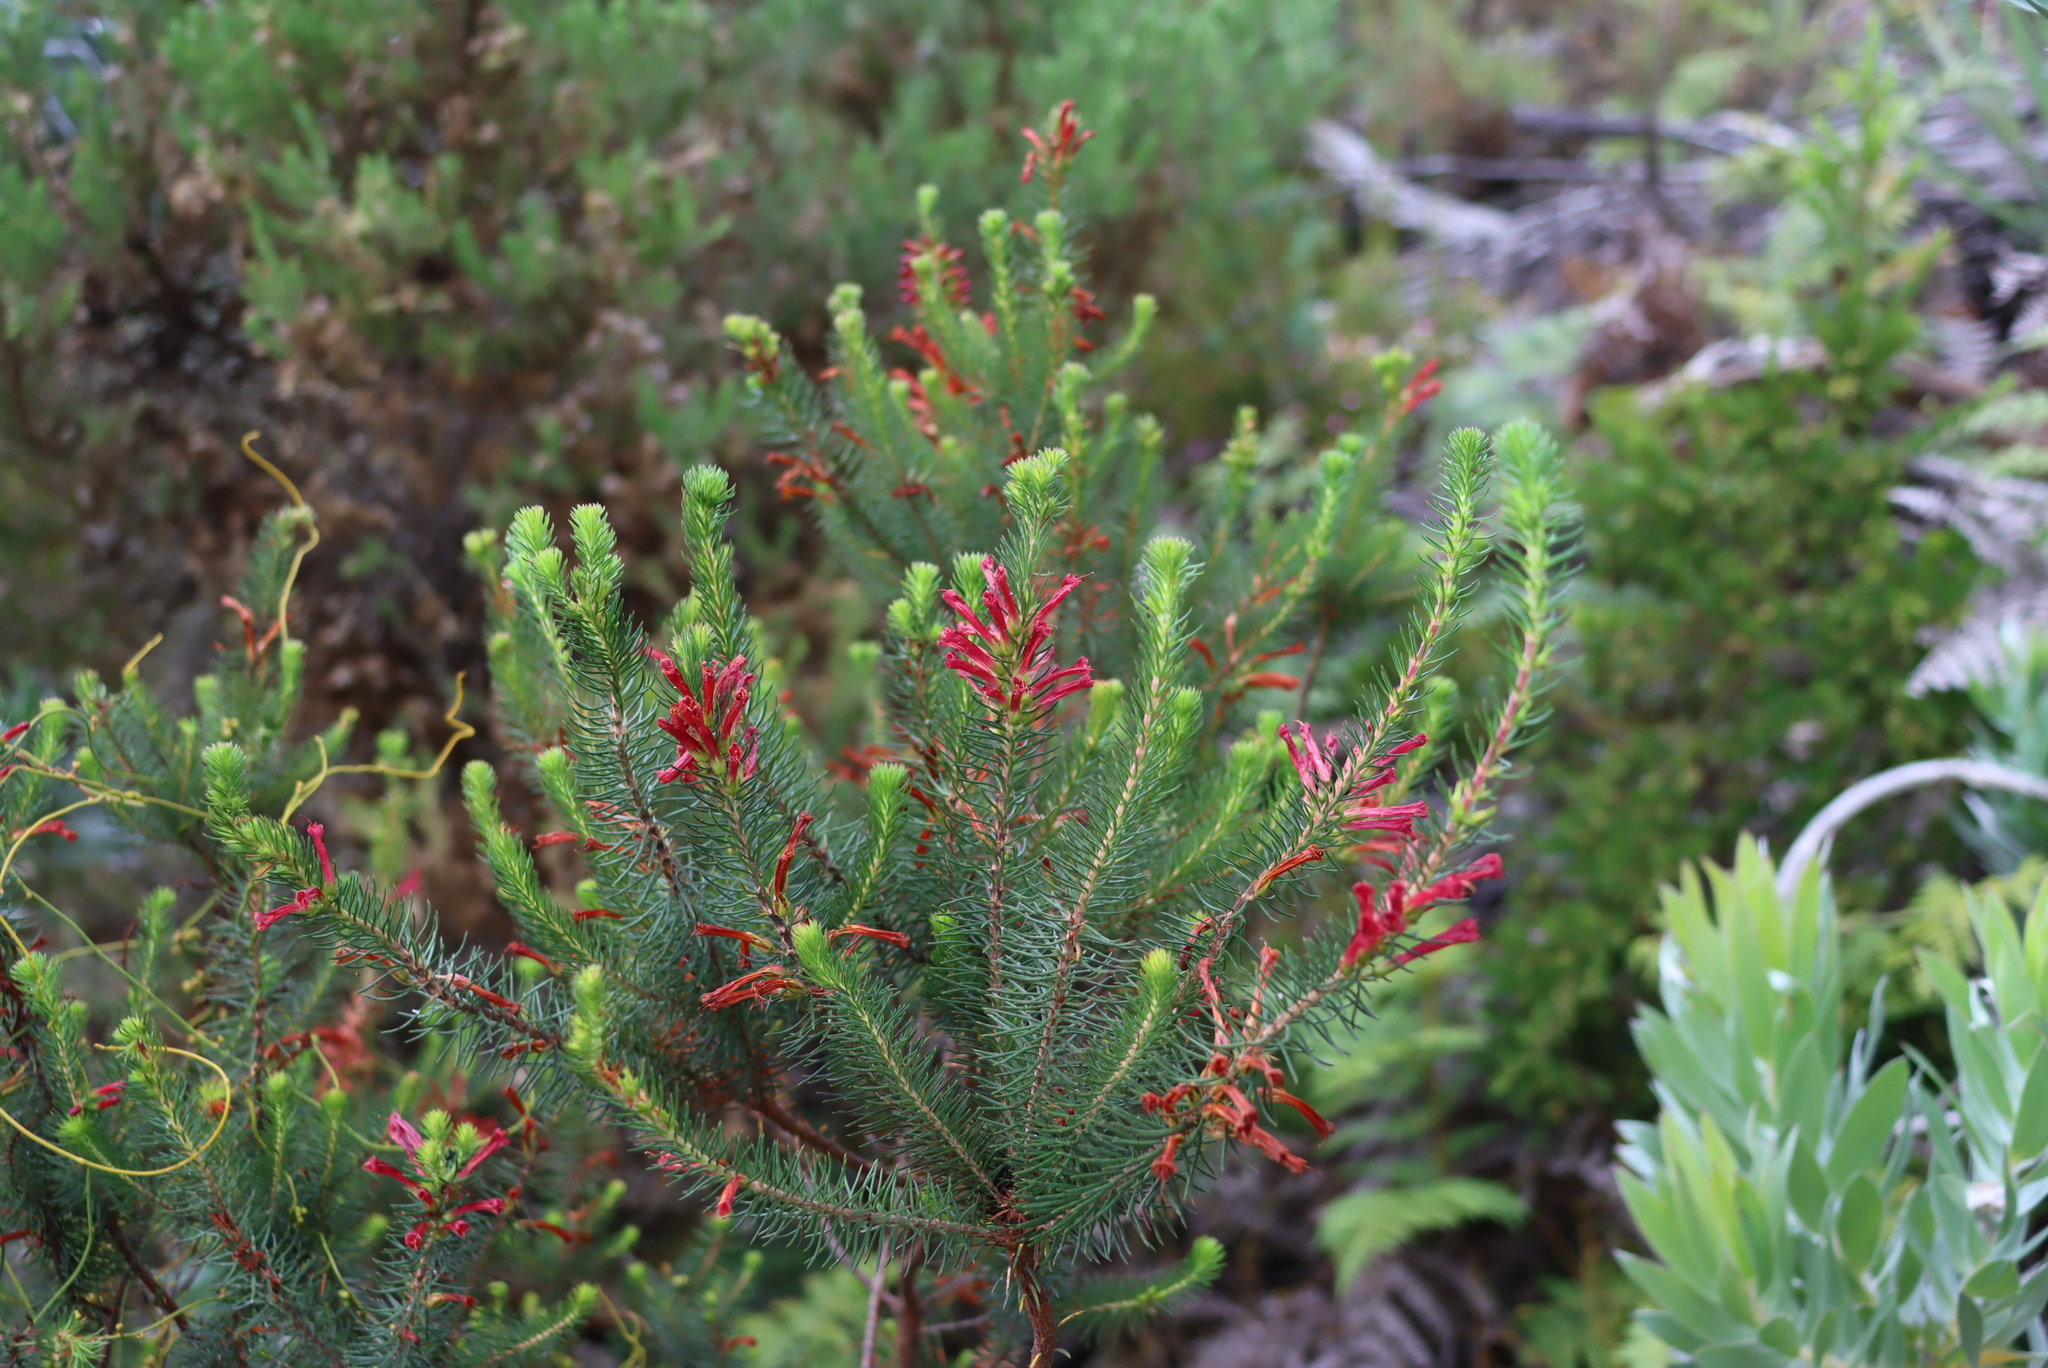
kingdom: Plantae
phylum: Tracheophyta
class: Magnoliopsida
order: Ericales
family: Ericaceae
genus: Erica
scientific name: Erica abietina
